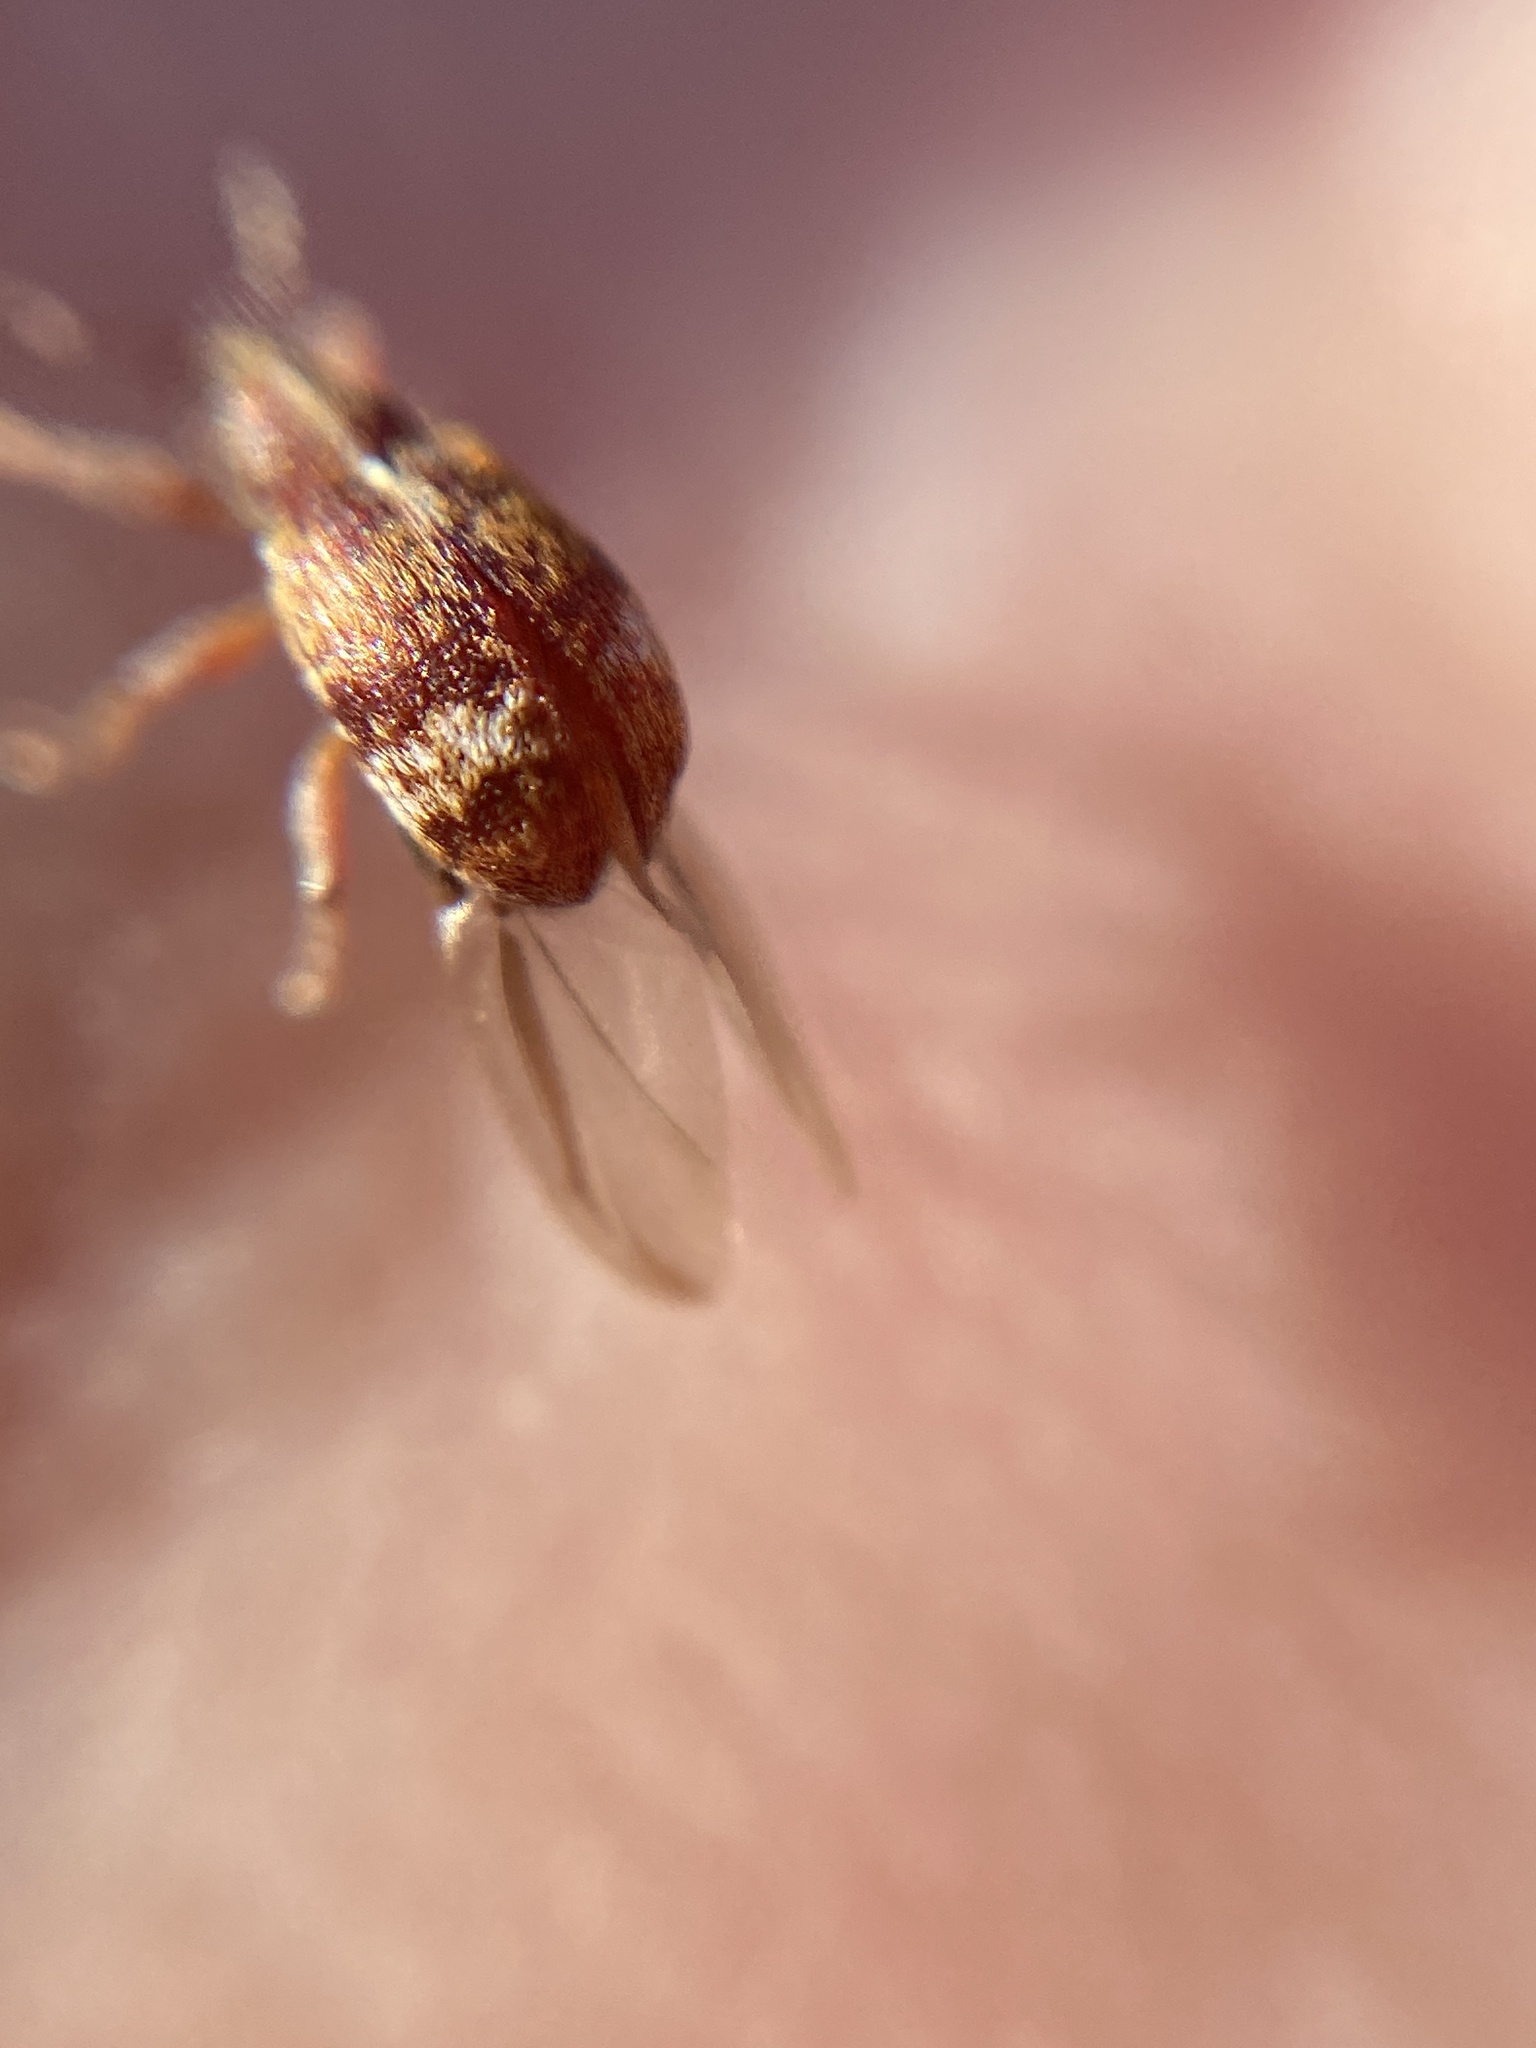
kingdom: Animalia
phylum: Arthropoda
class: Insecta
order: Coleoptera
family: Curculionidae
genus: Anthonomus
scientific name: Anthonomus pedicularius
